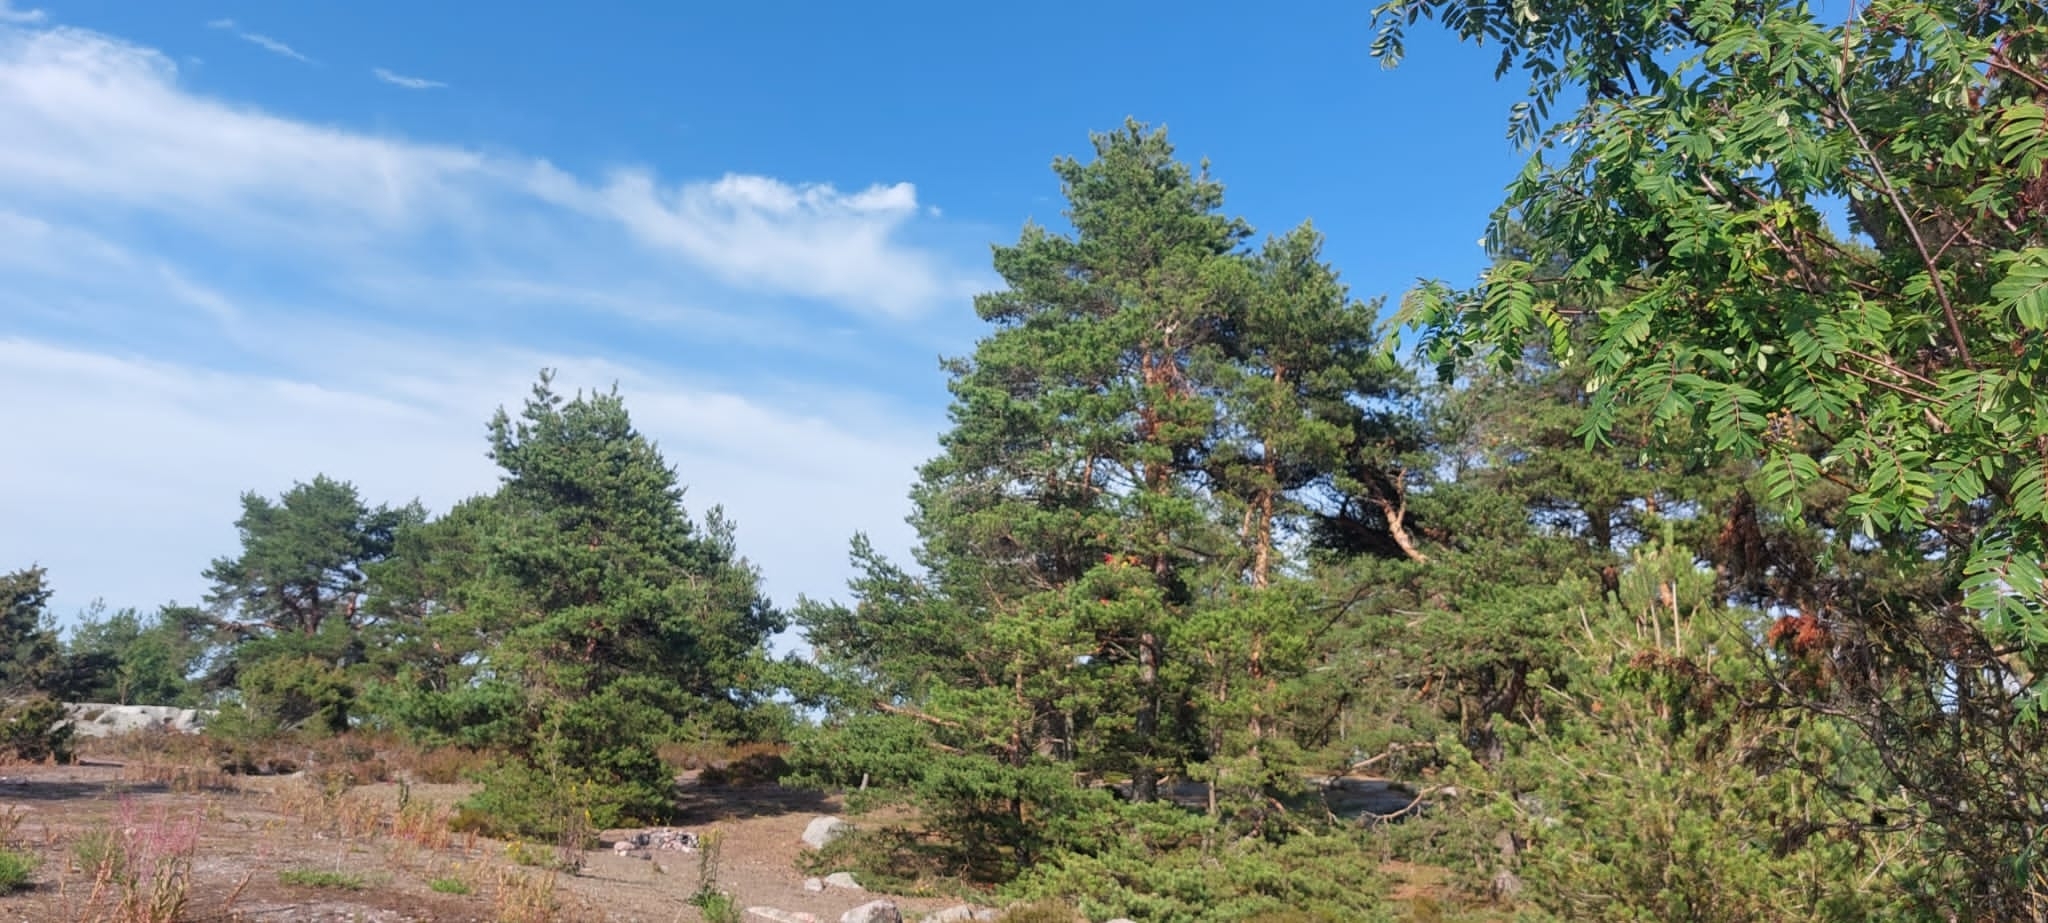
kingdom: Plantae
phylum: Tracheophyta
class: Pinopsida
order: Pinales
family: Pinaceae
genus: Pinus
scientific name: Pinus sylvestris
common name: Scots pine
